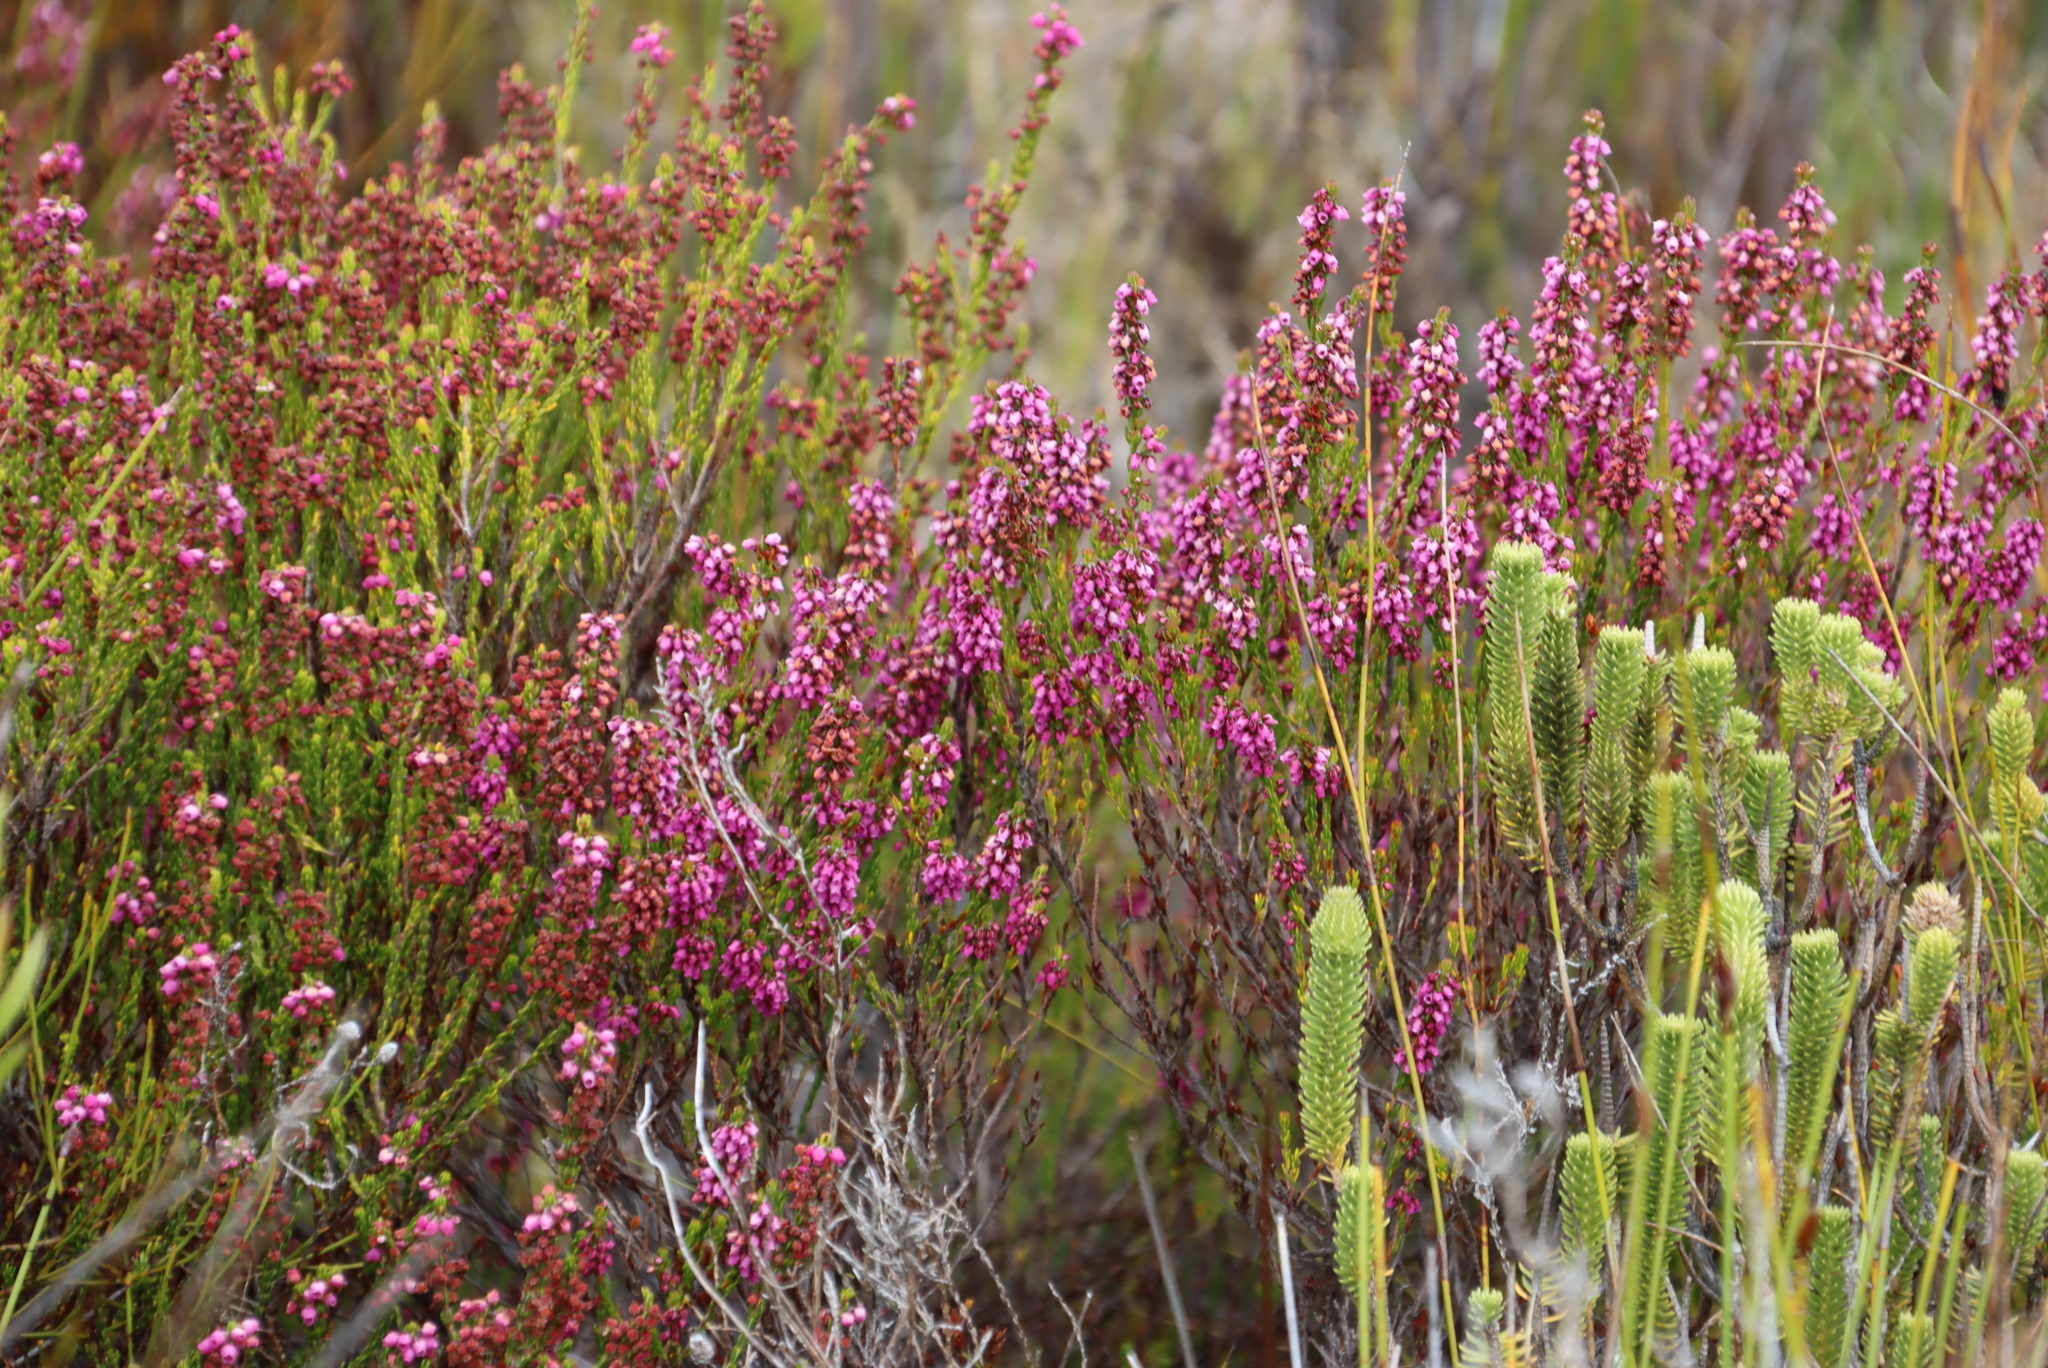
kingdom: Plantae
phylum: Tracheophyta
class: Magnoliopsida
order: Ericales
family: Ericaceae
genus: Erica
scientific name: Erica pulchella
